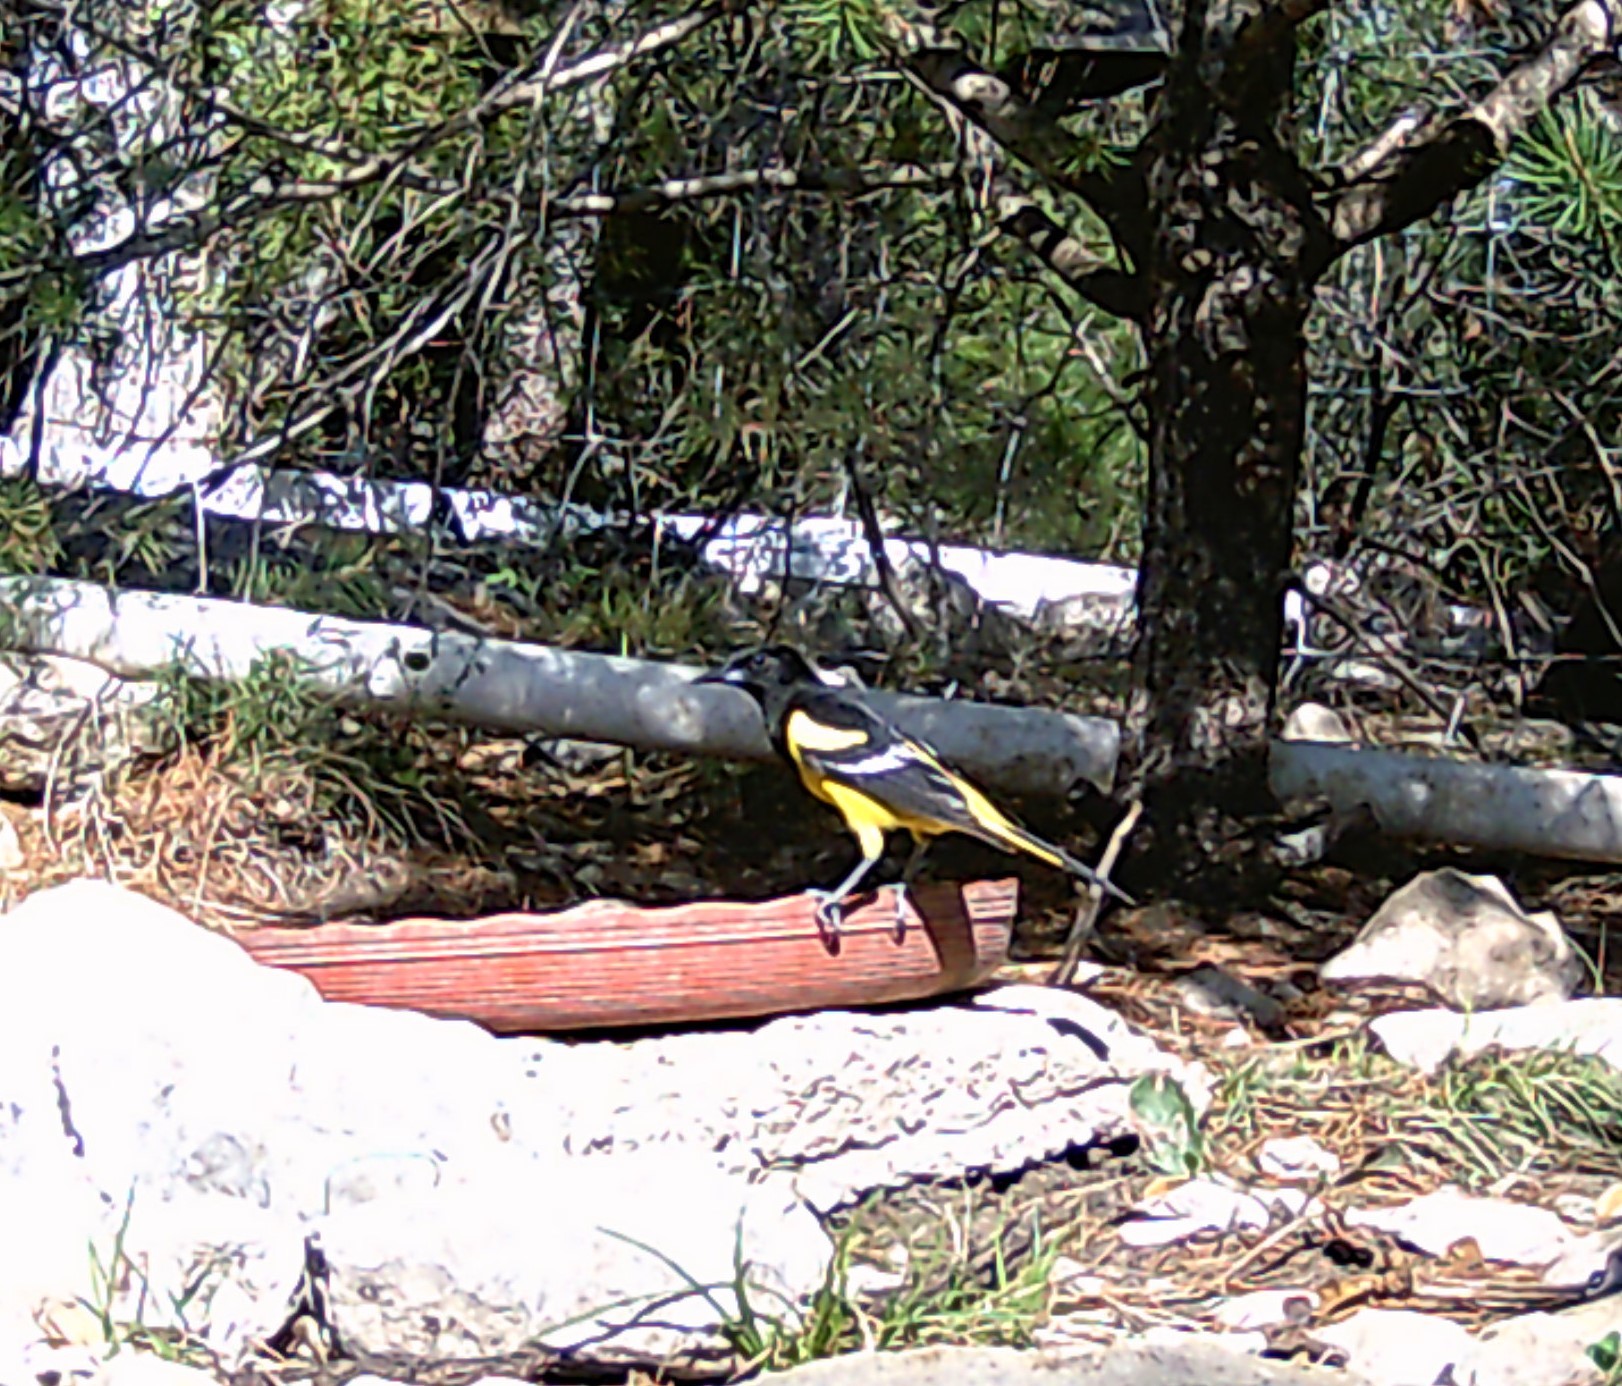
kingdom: Animalia
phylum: Chordata
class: Aves
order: Passeriformes
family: Icteridae
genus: Icterus
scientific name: Icterus parisorum
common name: Scott's oriole
